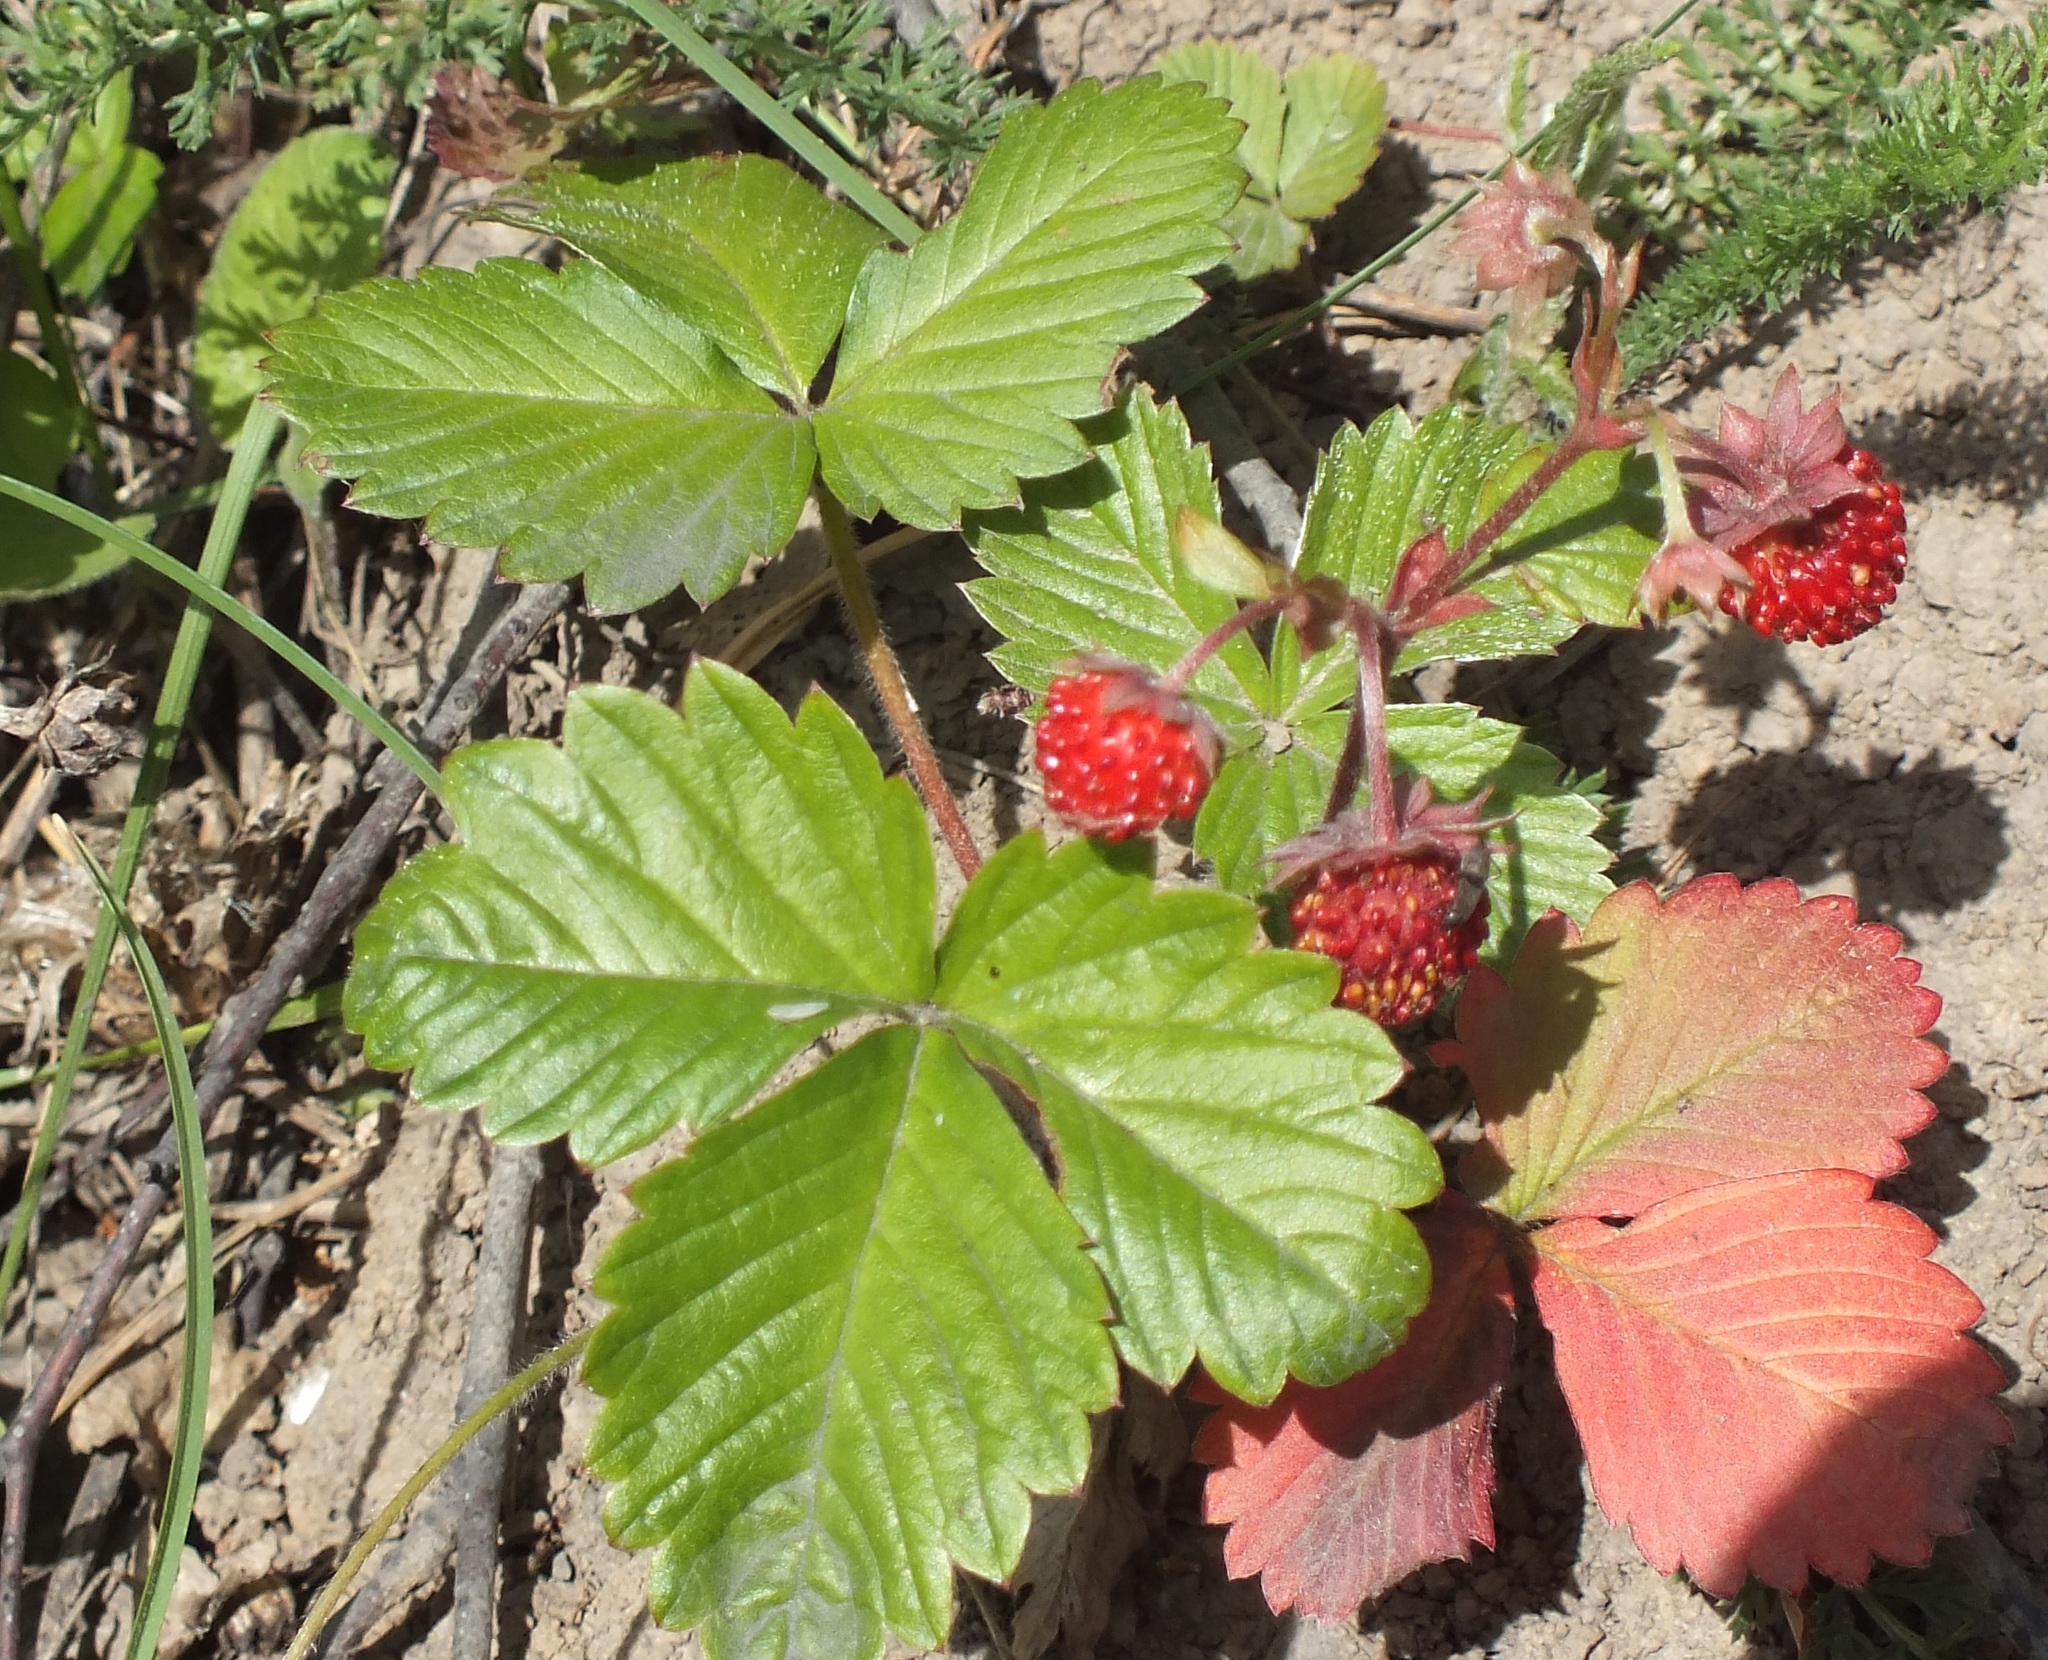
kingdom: Plantae
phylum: Tracheophyta
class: Magnoliopsida
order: Rosales
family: Rosaceae
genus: Fragaria
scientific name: Fragaria vesca
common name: Wild strawberry
